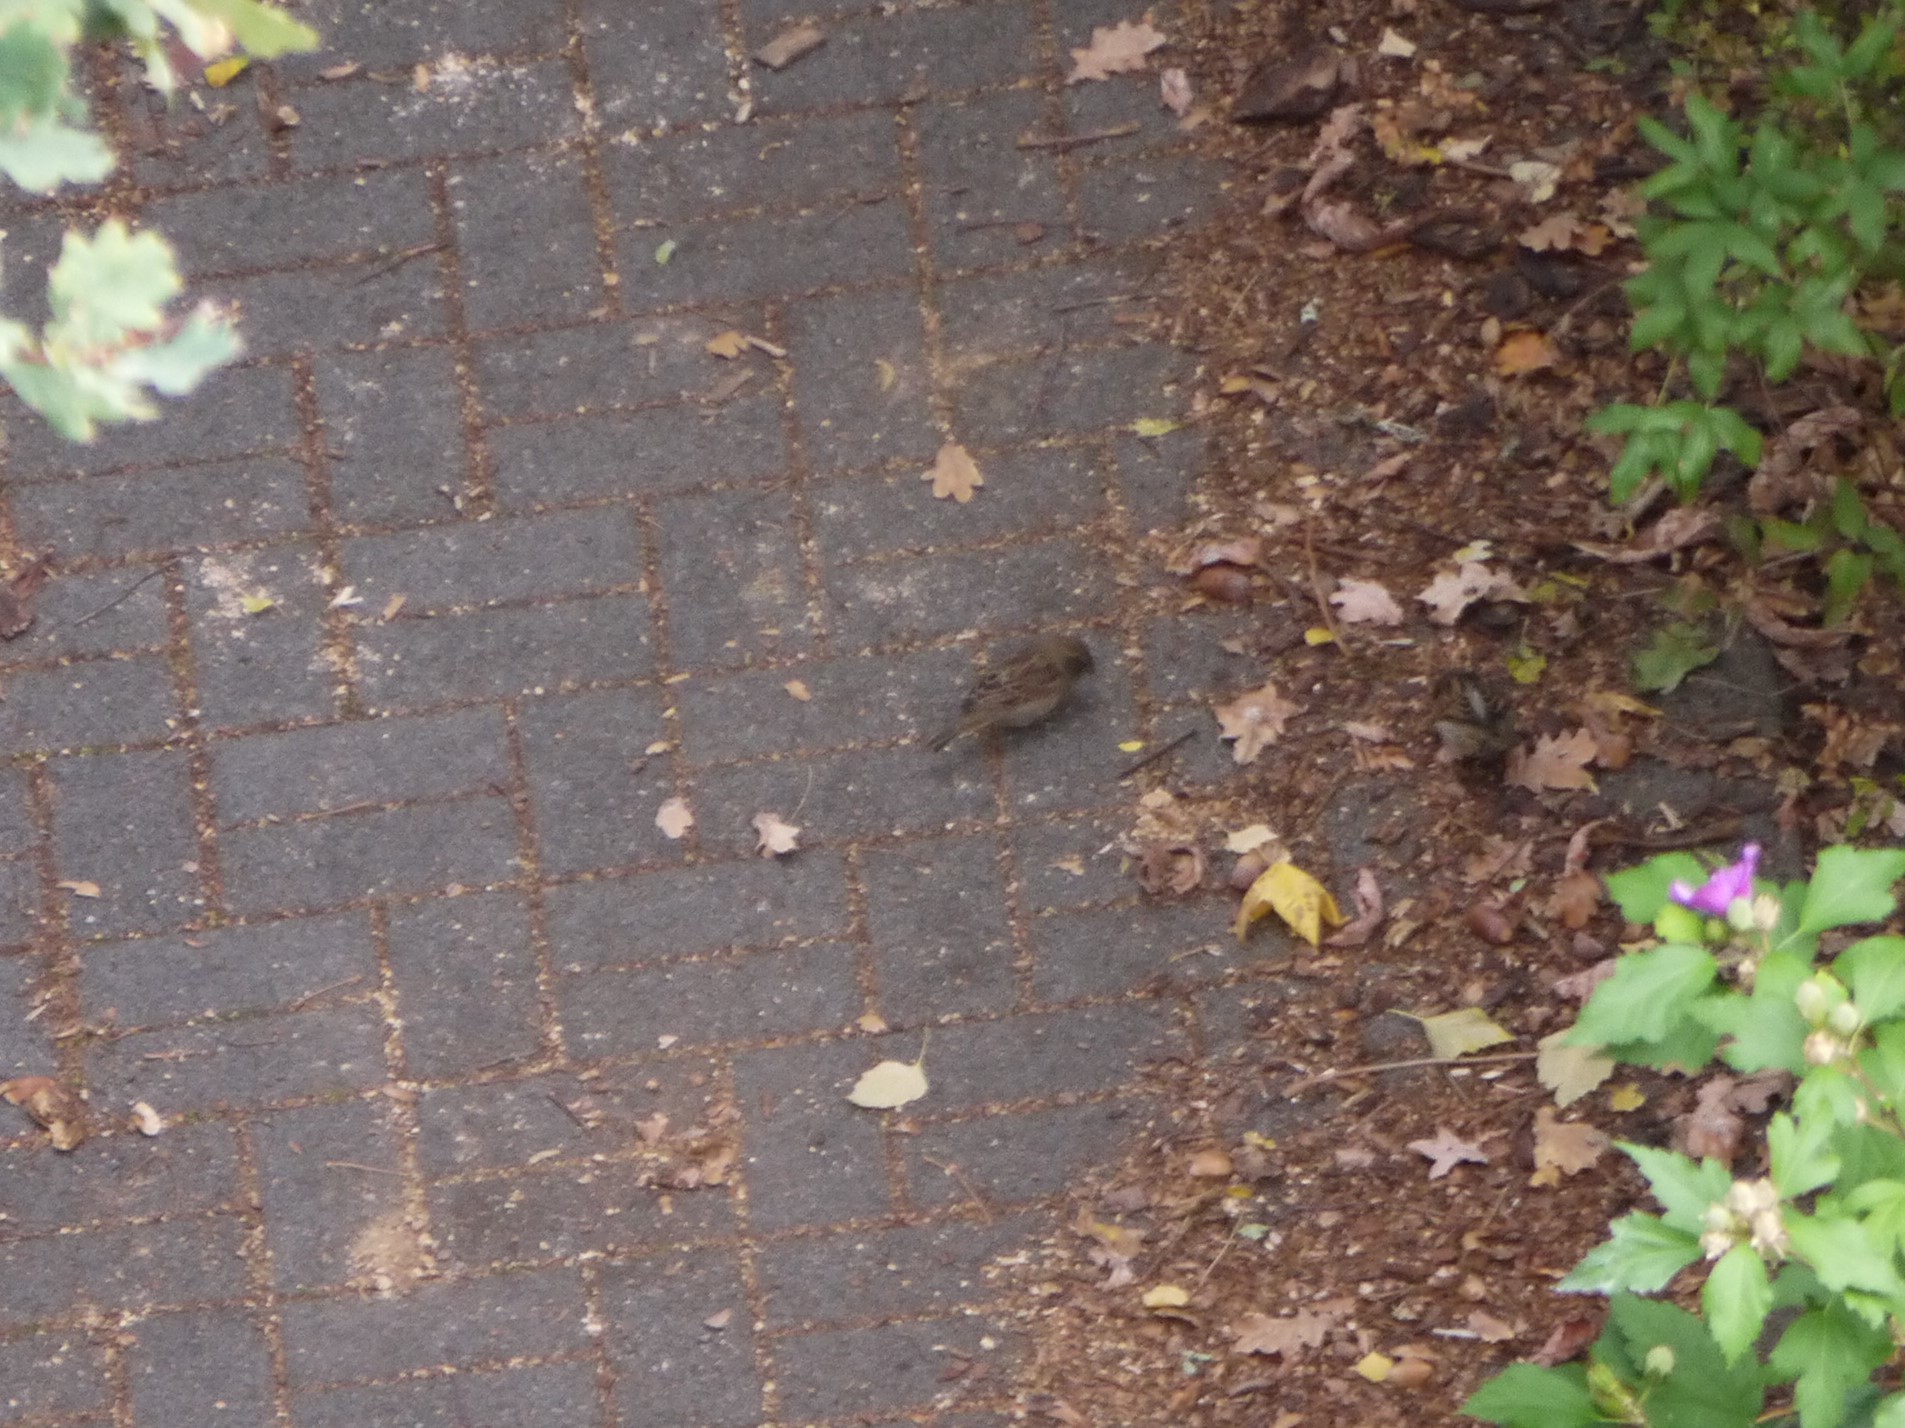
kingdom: Animalia
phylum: Chordata
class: Aves
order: Passeriformes
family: Passeridae
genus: Passer
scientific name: Passer domesticus
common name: House sparrow
